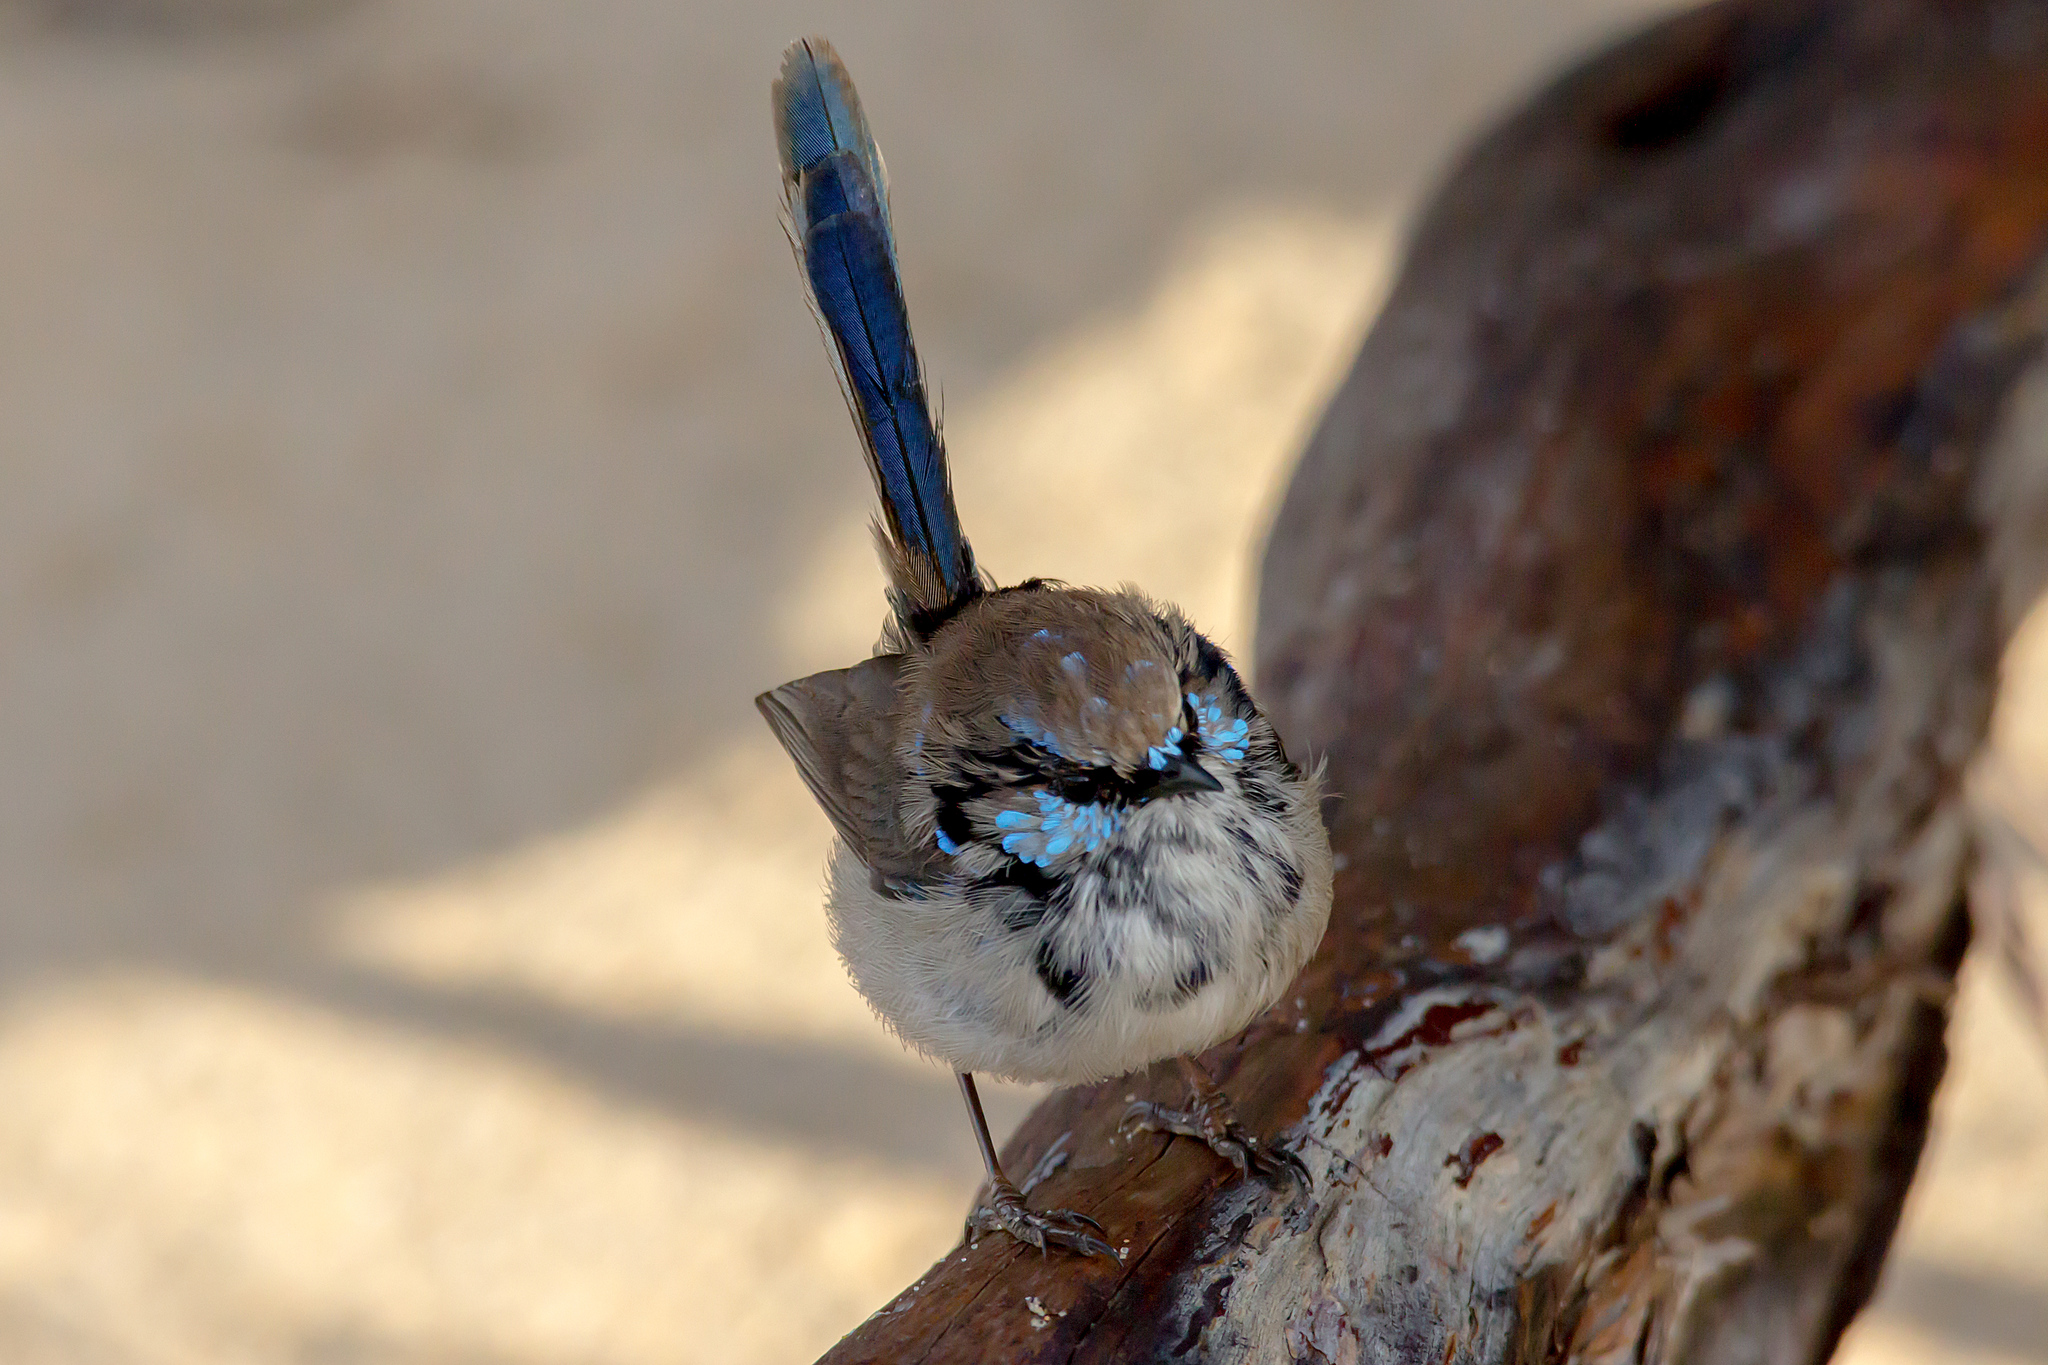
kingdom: Animalia
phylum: Chordata
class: Aves
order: Passeriformes
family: Maluridae
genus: Malurus
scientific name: Malurus cyaneus
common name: Superb fairywren
